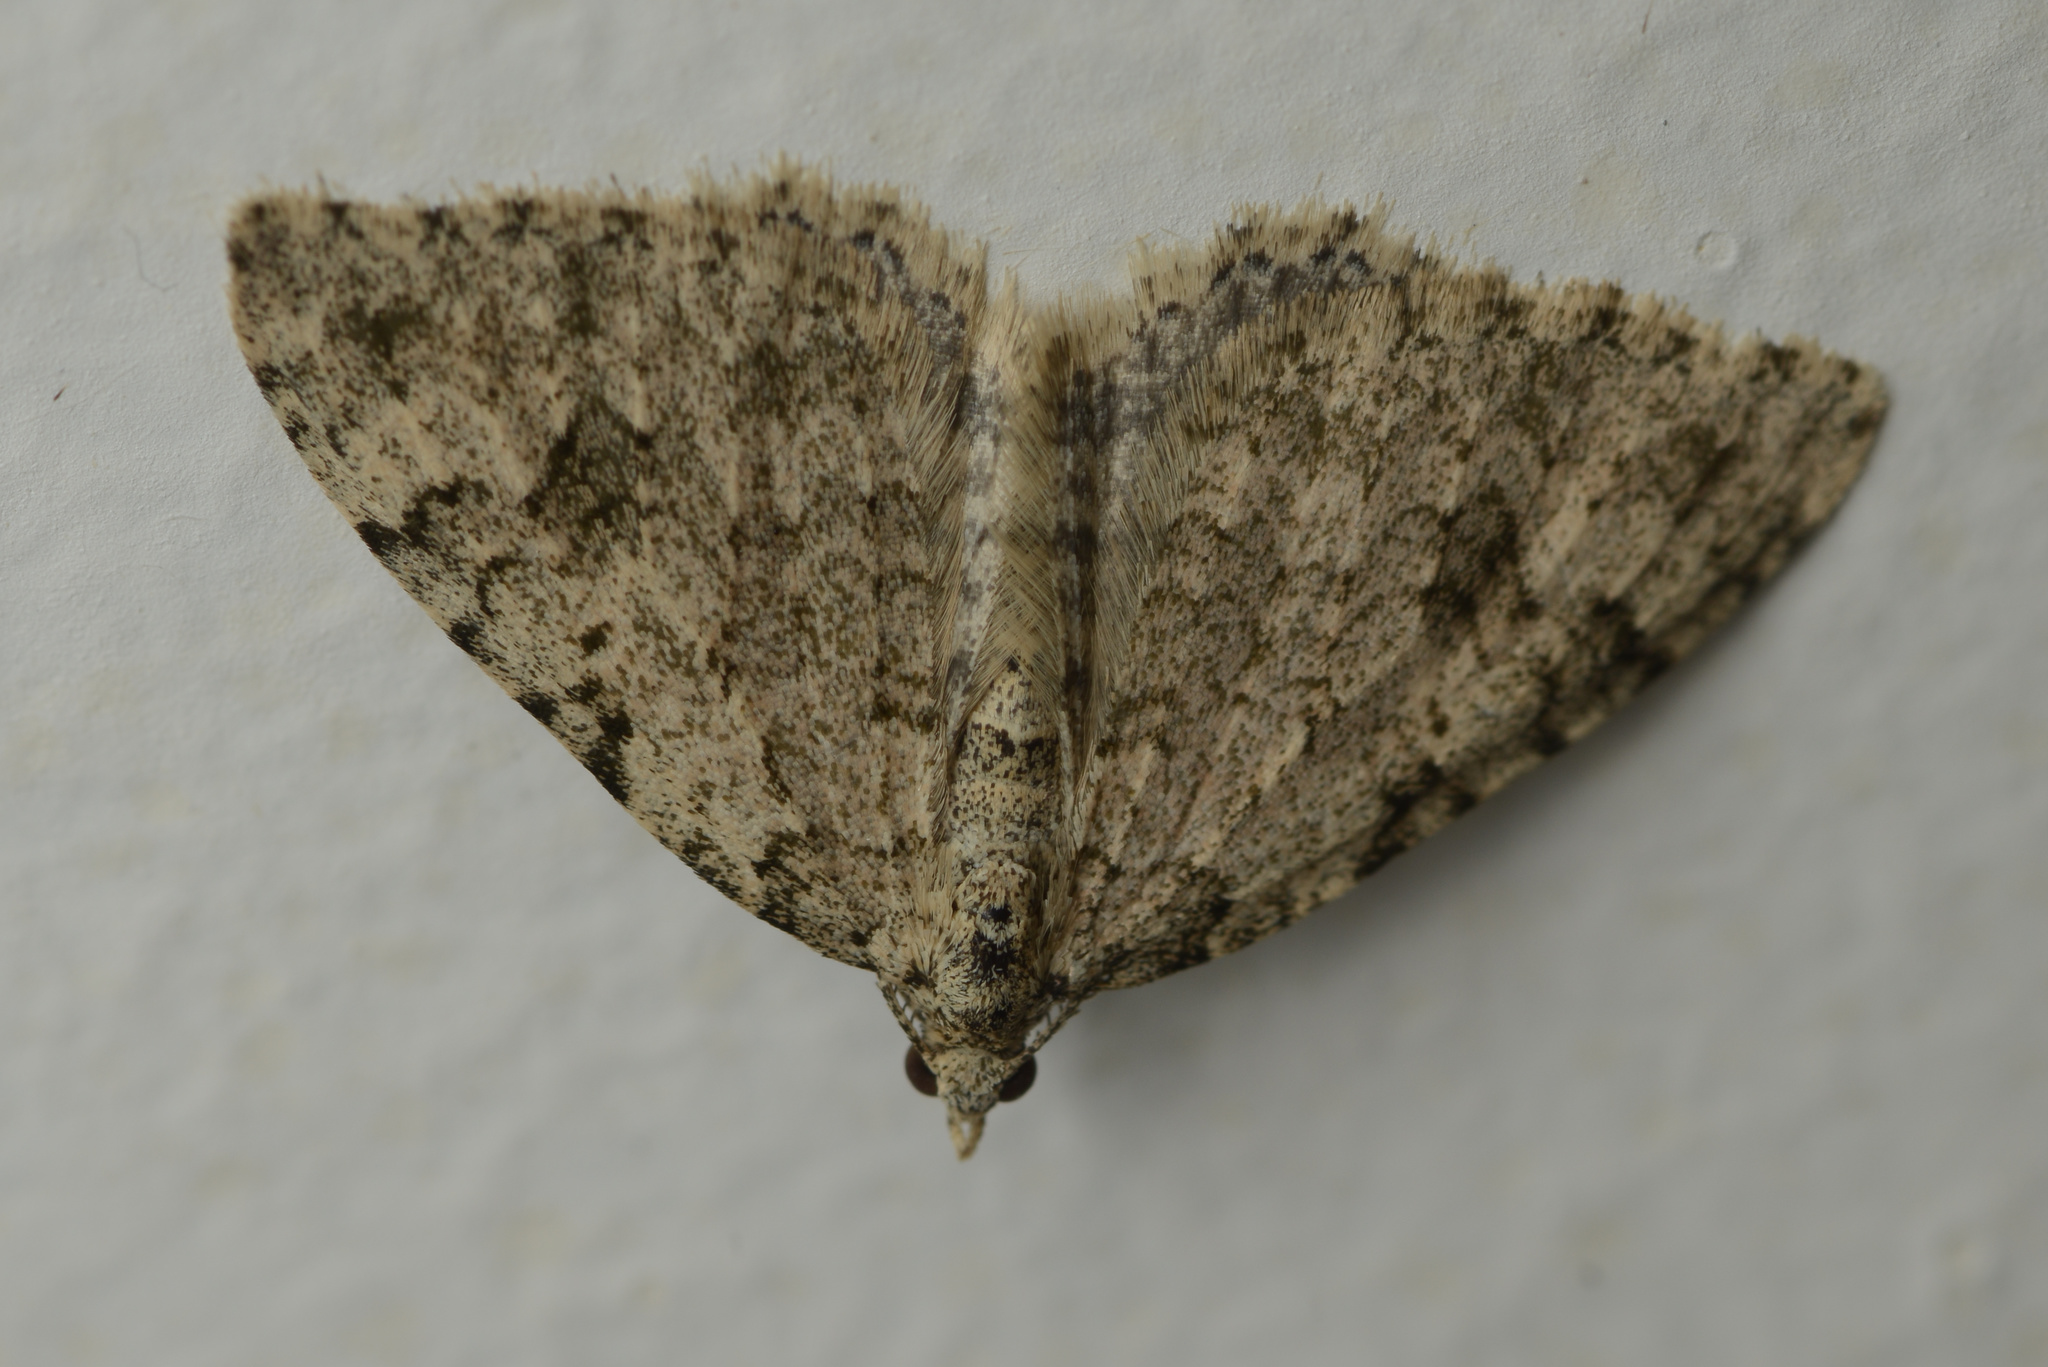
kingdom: Animalia
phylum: Arthropoda
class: Insecta
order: Lepidoptera
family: Geometridae
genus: Helastia
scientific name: Helastia cinerearia
